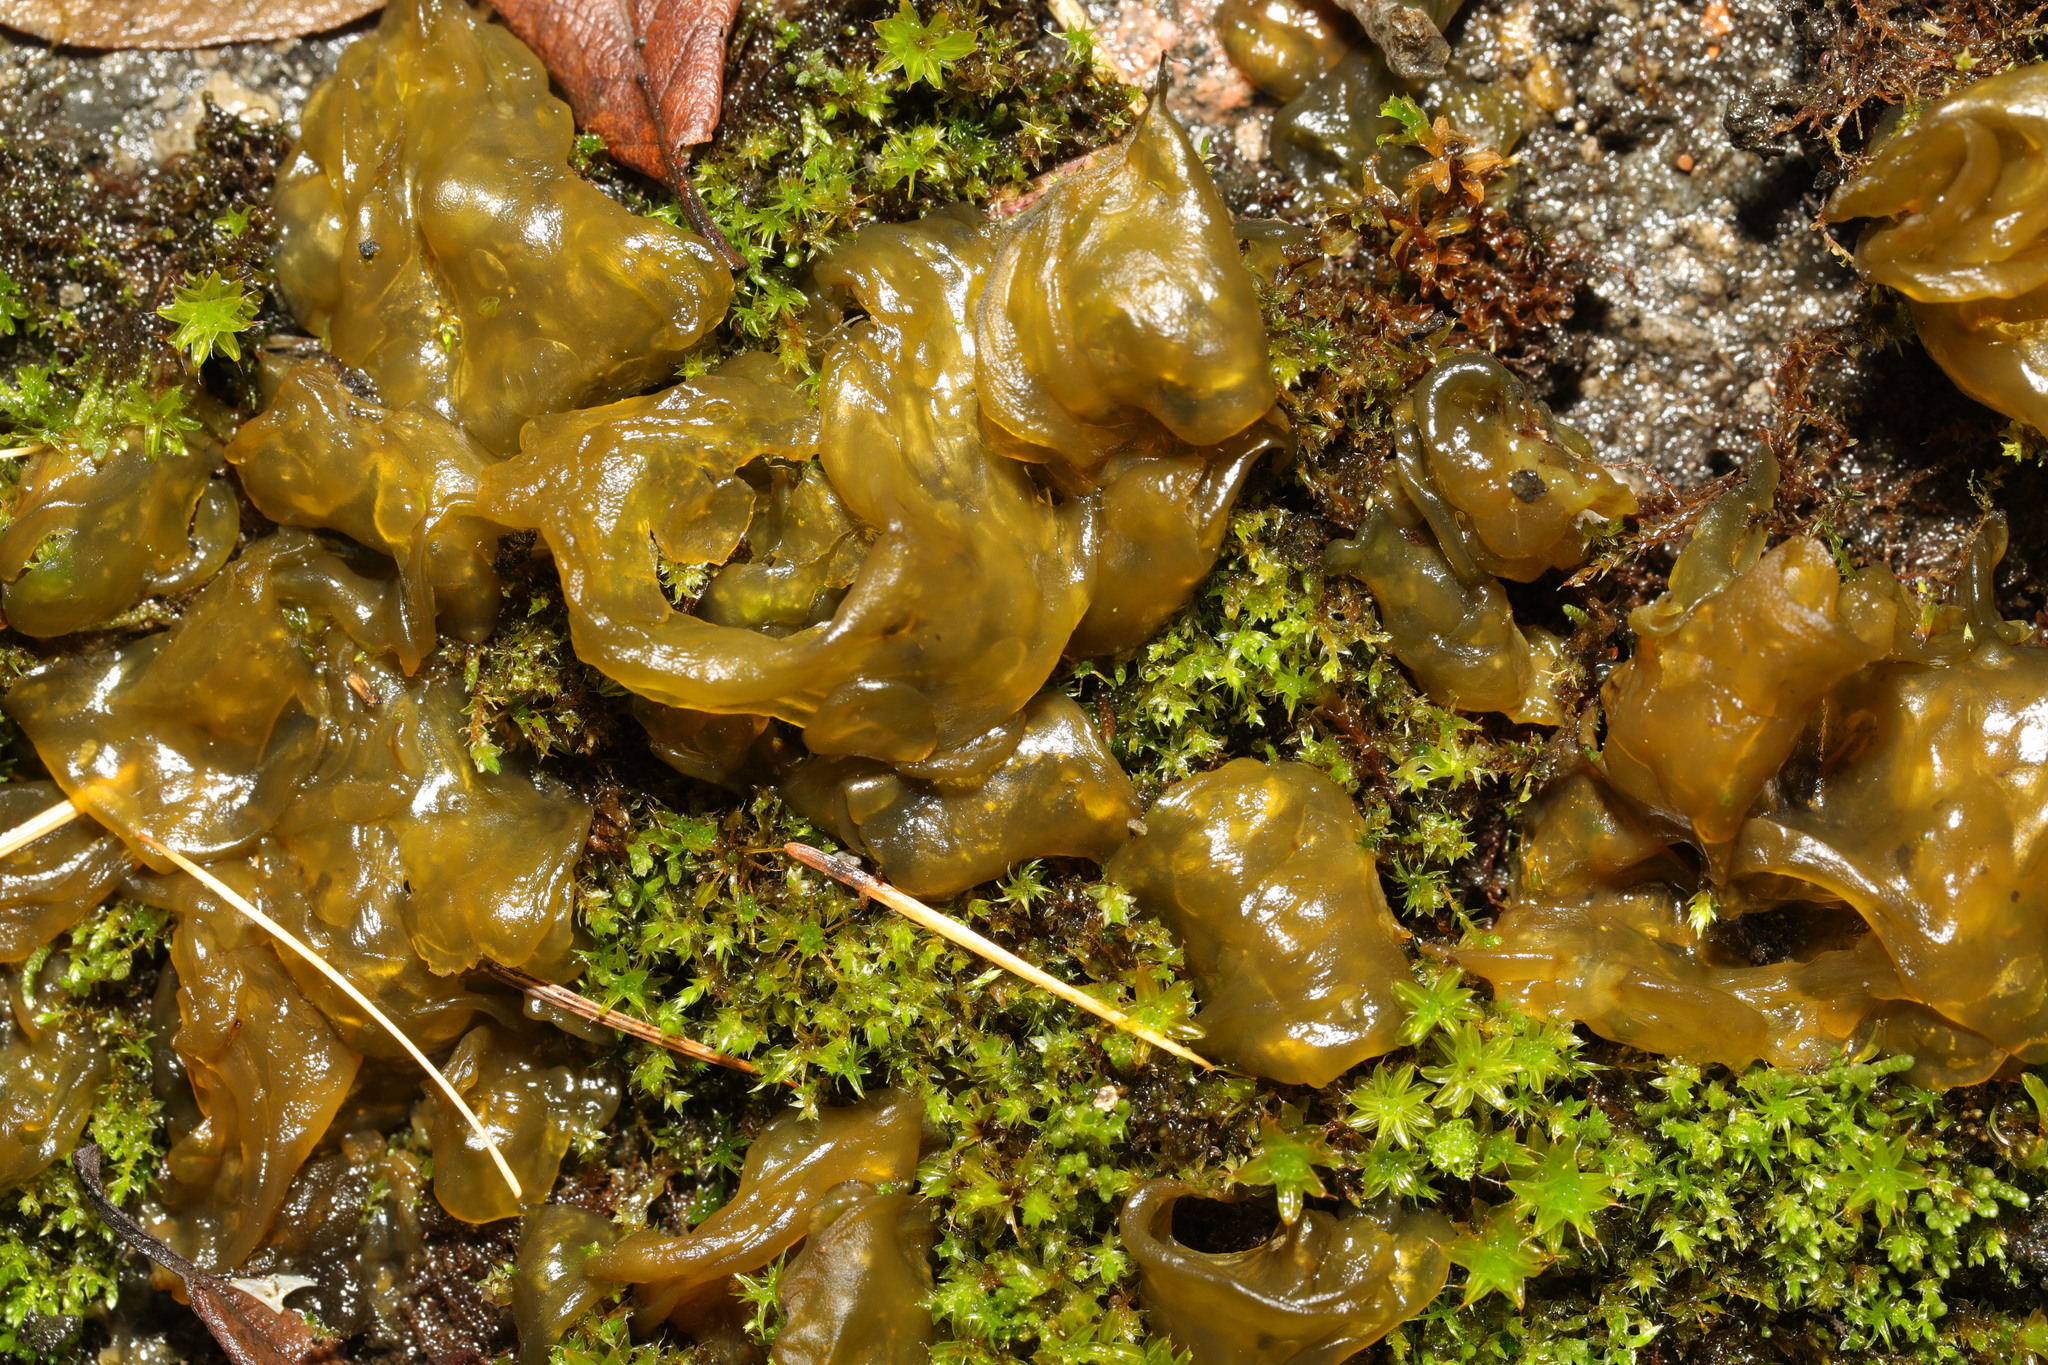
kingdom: Bacteria
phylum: Cyanobacteria
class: Cyanobacteriia
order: Cyanobacteriales
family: Nostocaceae
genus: Nostoc
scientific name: Nostoc commune
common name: Star jelly
